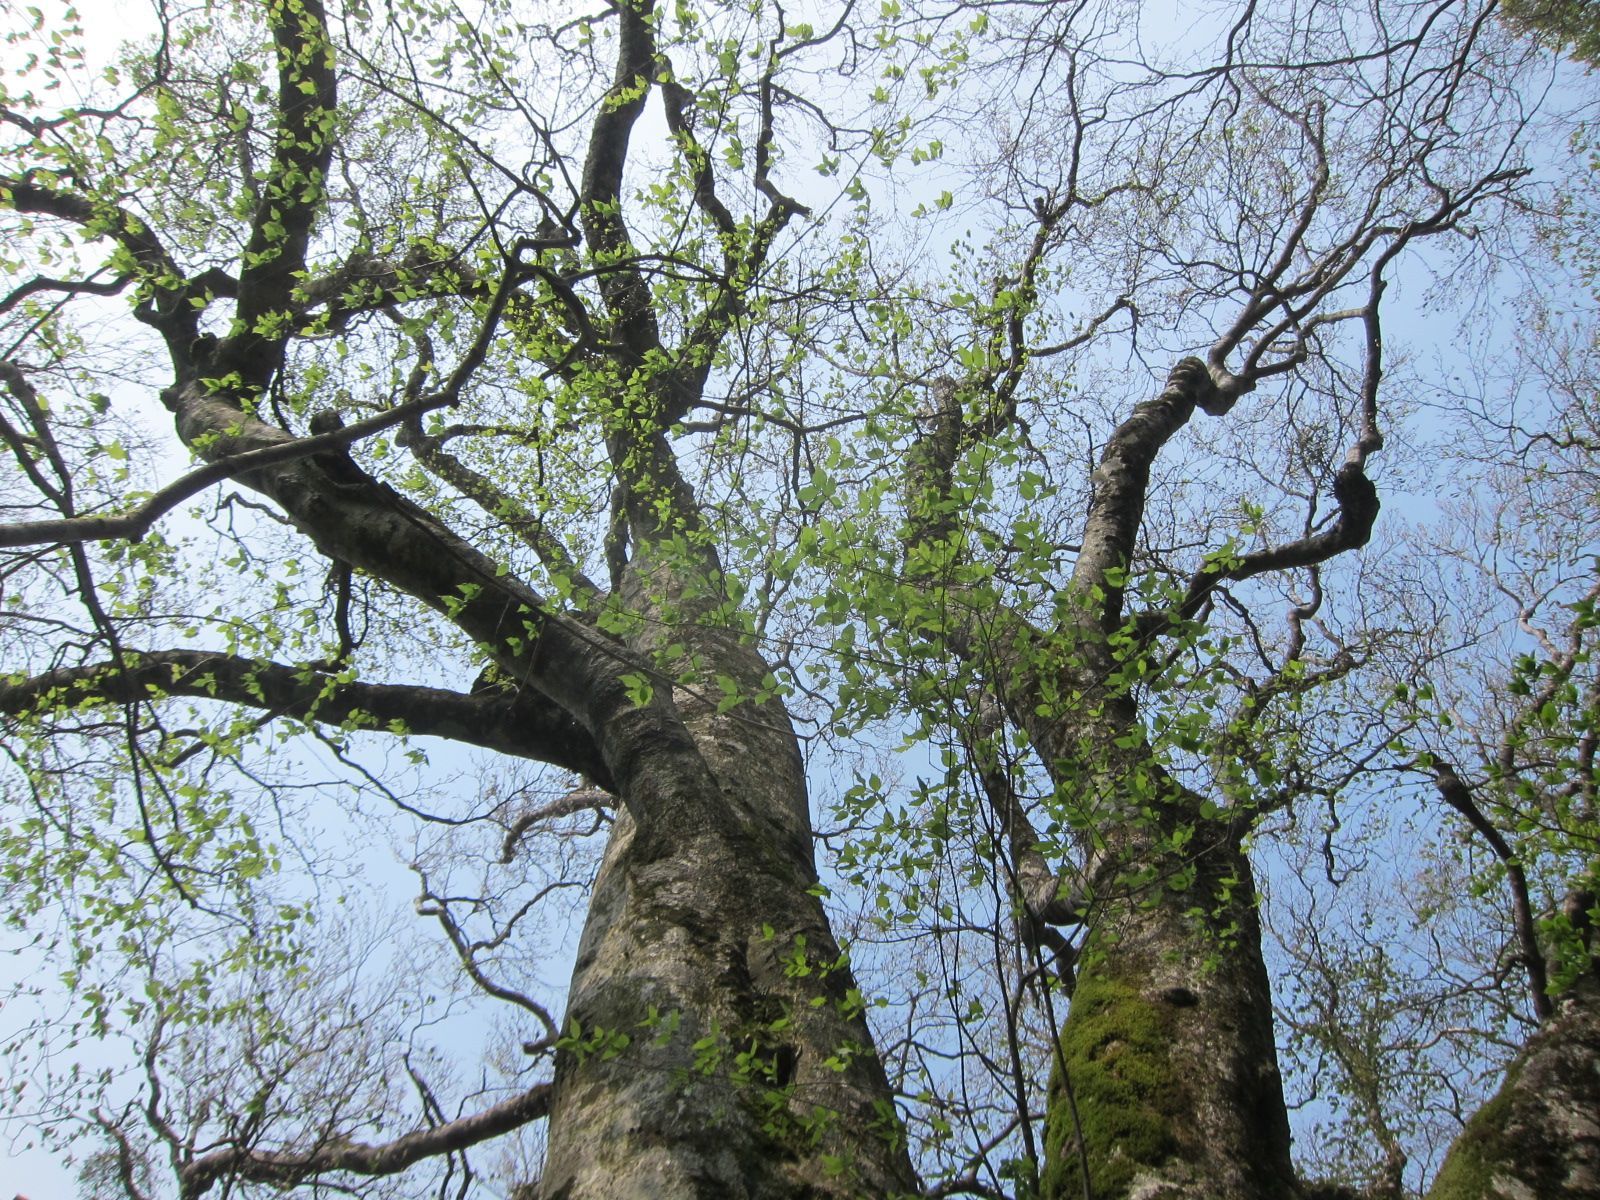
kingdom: Plantae
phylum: Tracheophyta
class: Magnoliopsida
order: Fagales
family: Fagaceae
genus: Fagus
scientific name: Fagus crenata
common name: Japanese beech
